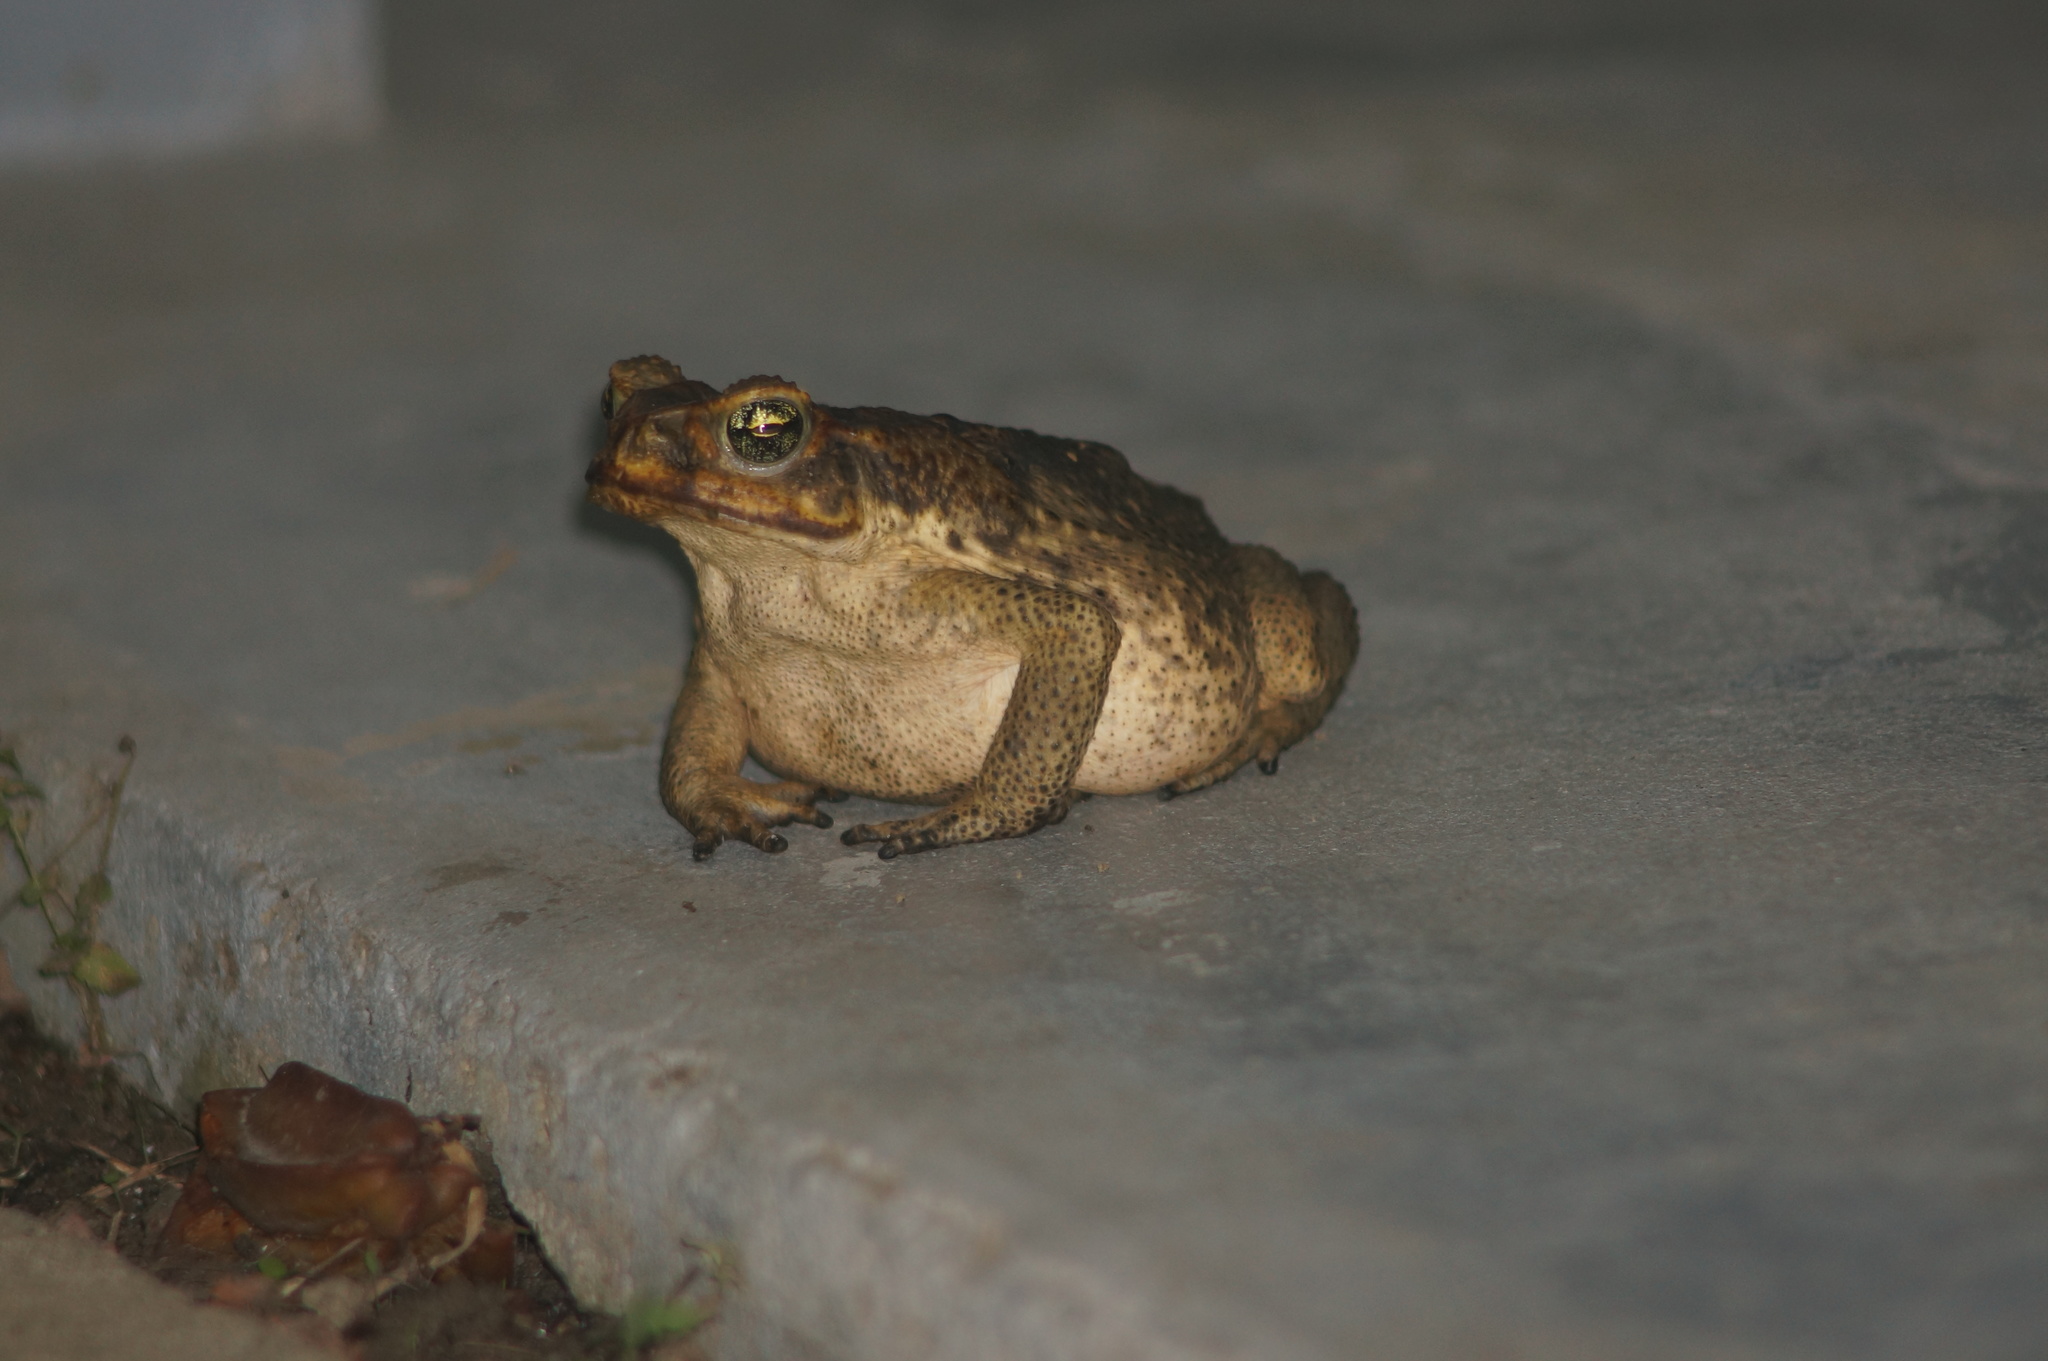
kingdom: Animalia
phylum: Chordata
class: Amphibia
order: Anura
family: Bufonidae
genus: Rhinella
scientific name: Rhinella marina
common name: Cane toad
